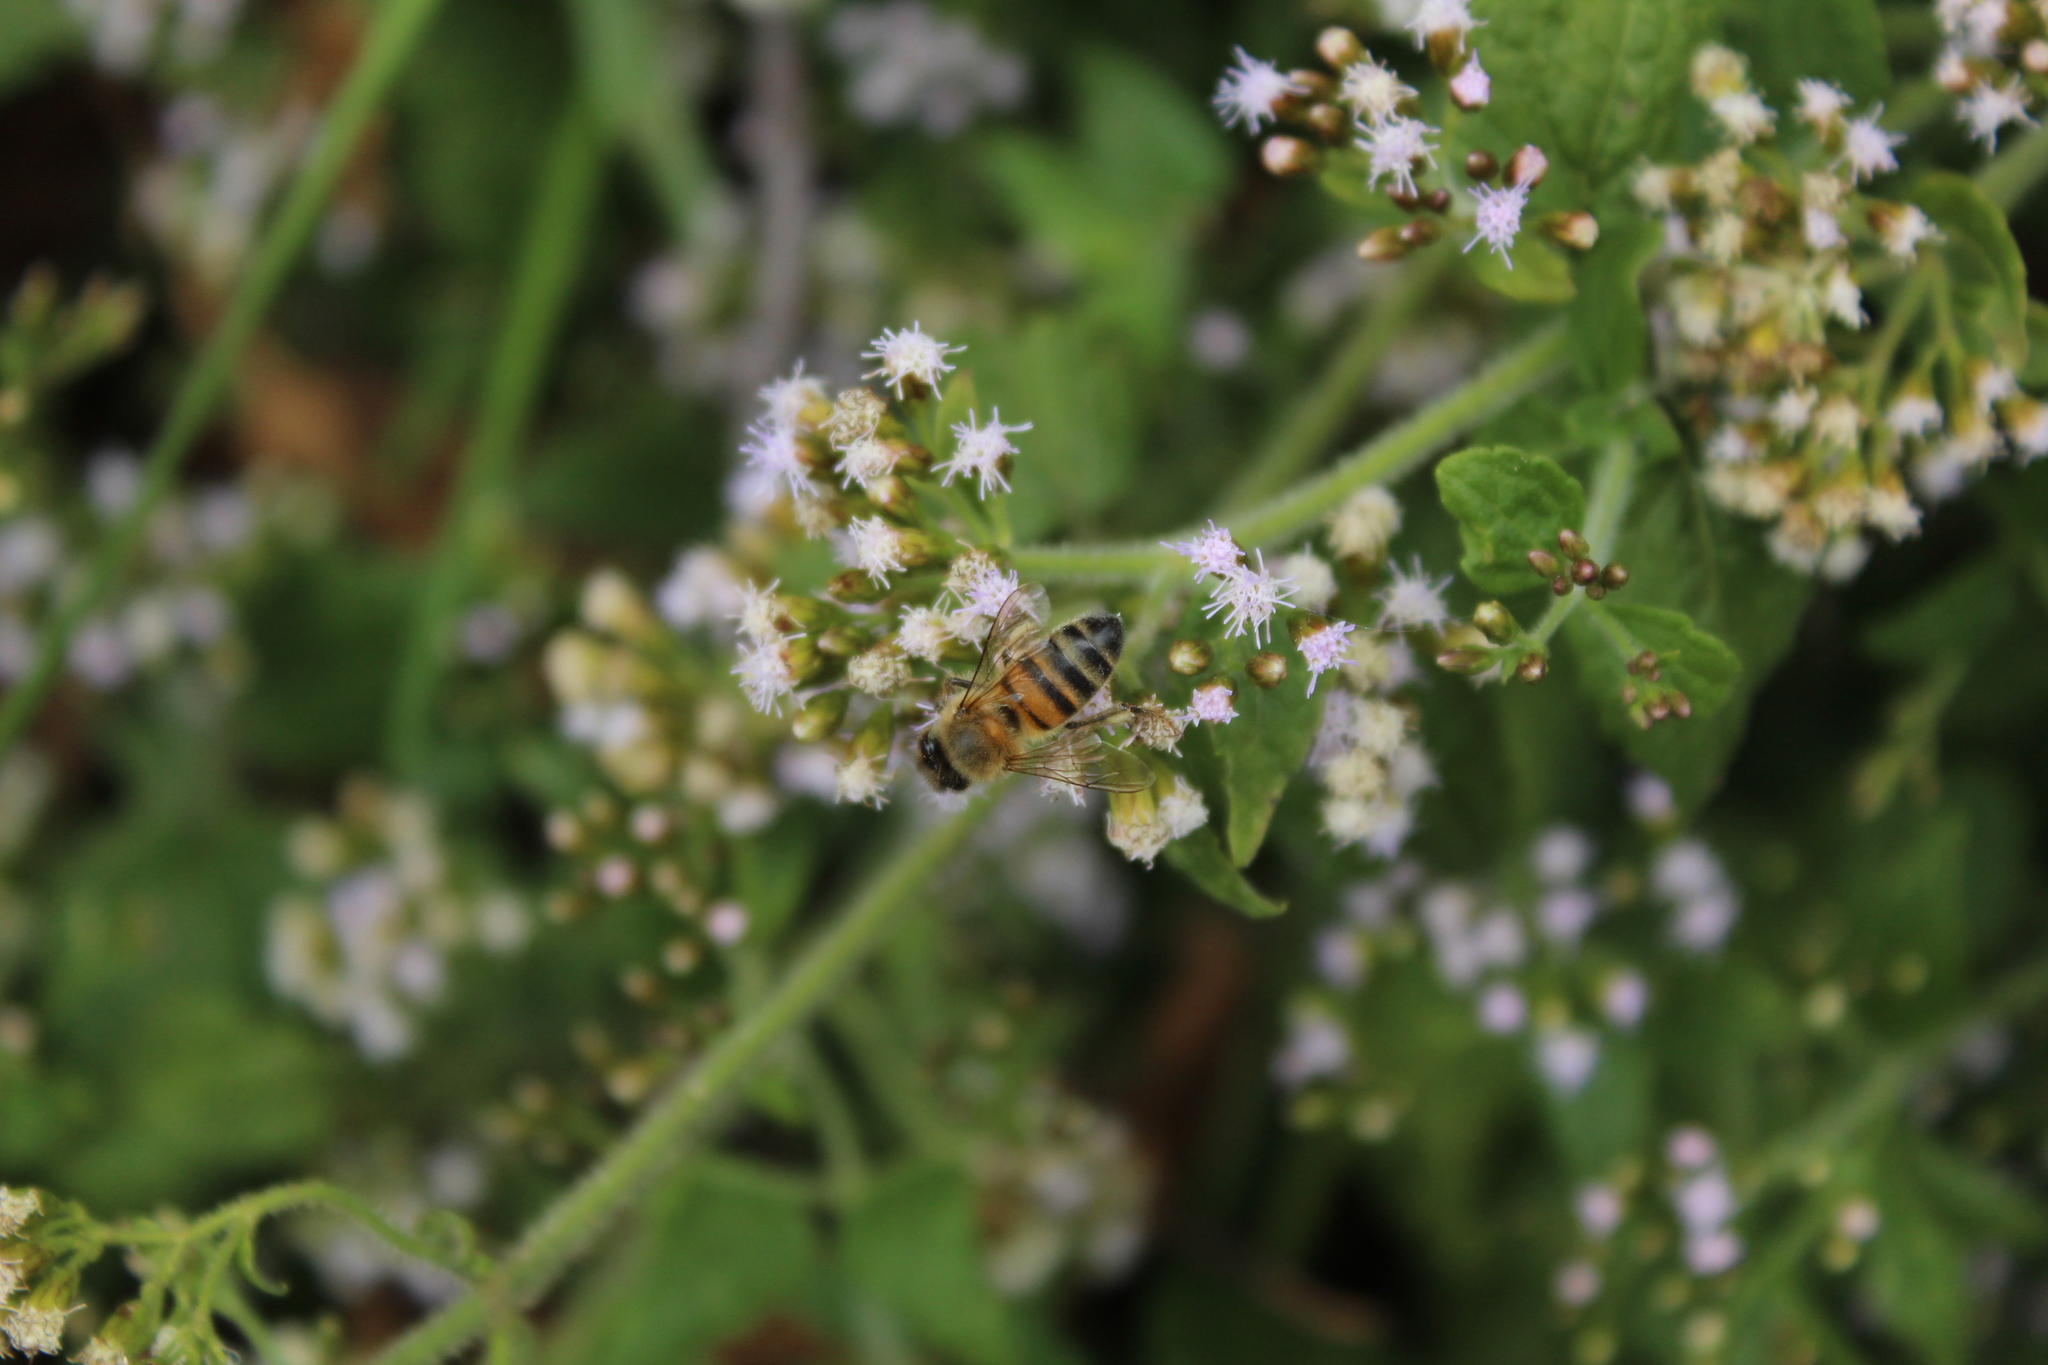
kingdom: Animalia
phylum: Arthropoda
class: Insecta
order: Hymenoptera
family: Apidae
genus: Apis
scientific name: Apis mellifera
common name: Honey bee
